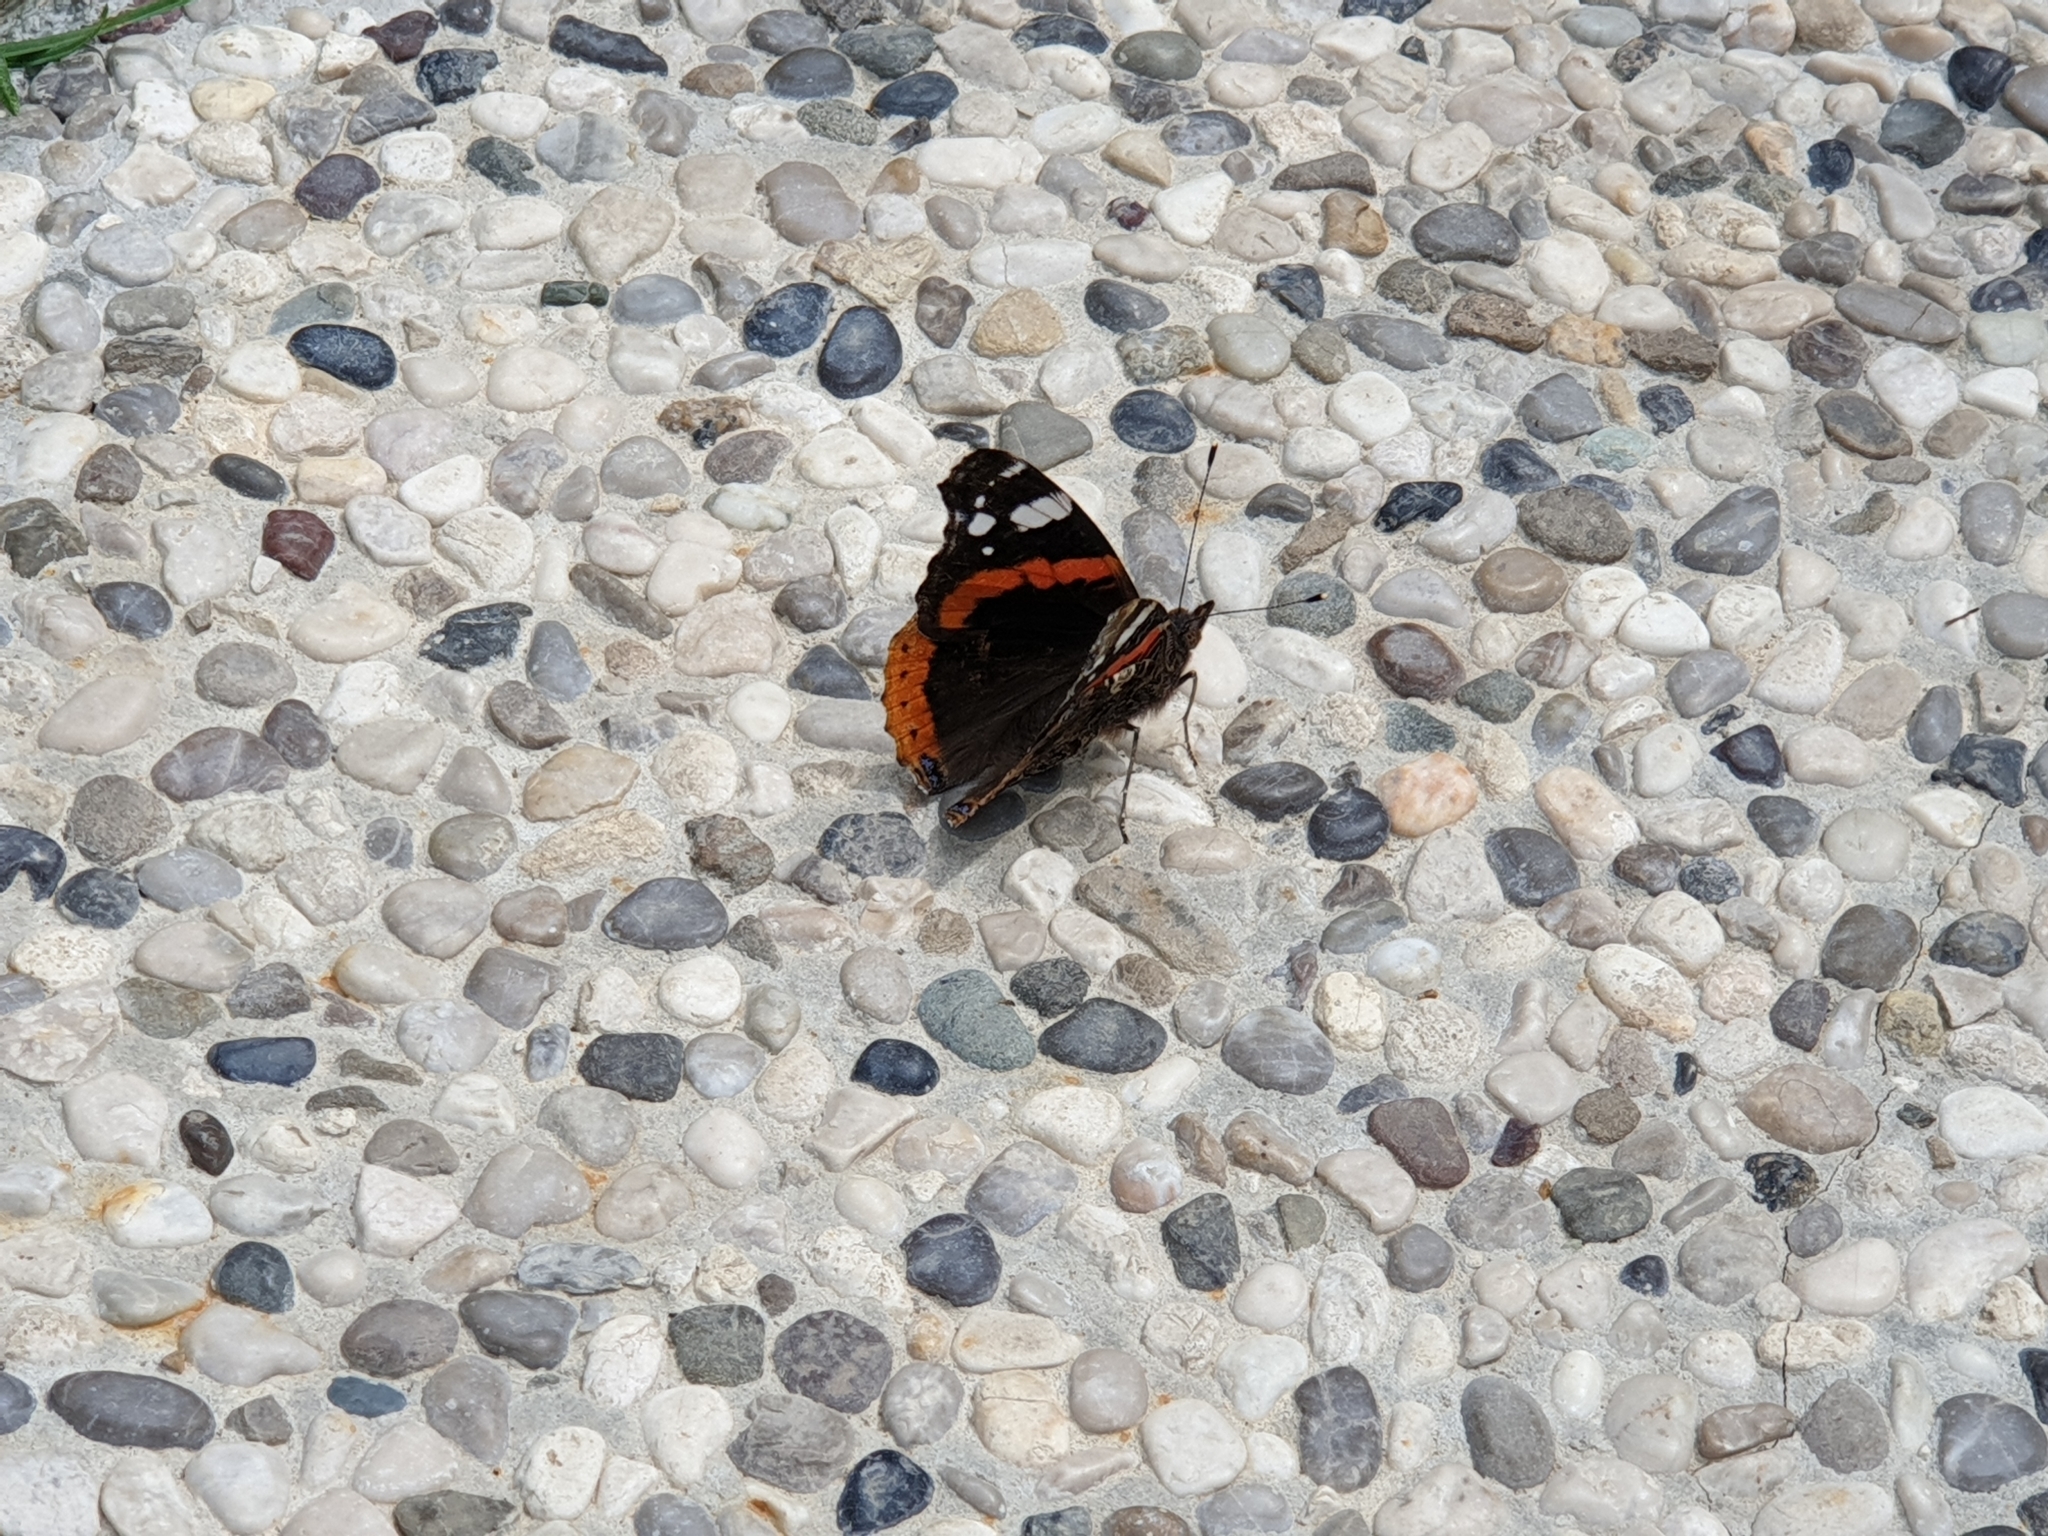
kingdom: Animalia
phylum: Arthropoda
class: Insecta
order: Lepidoptera
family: Nymphalidae
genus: Vanessa
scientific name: Vanessa atalanta
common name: Red admiral
